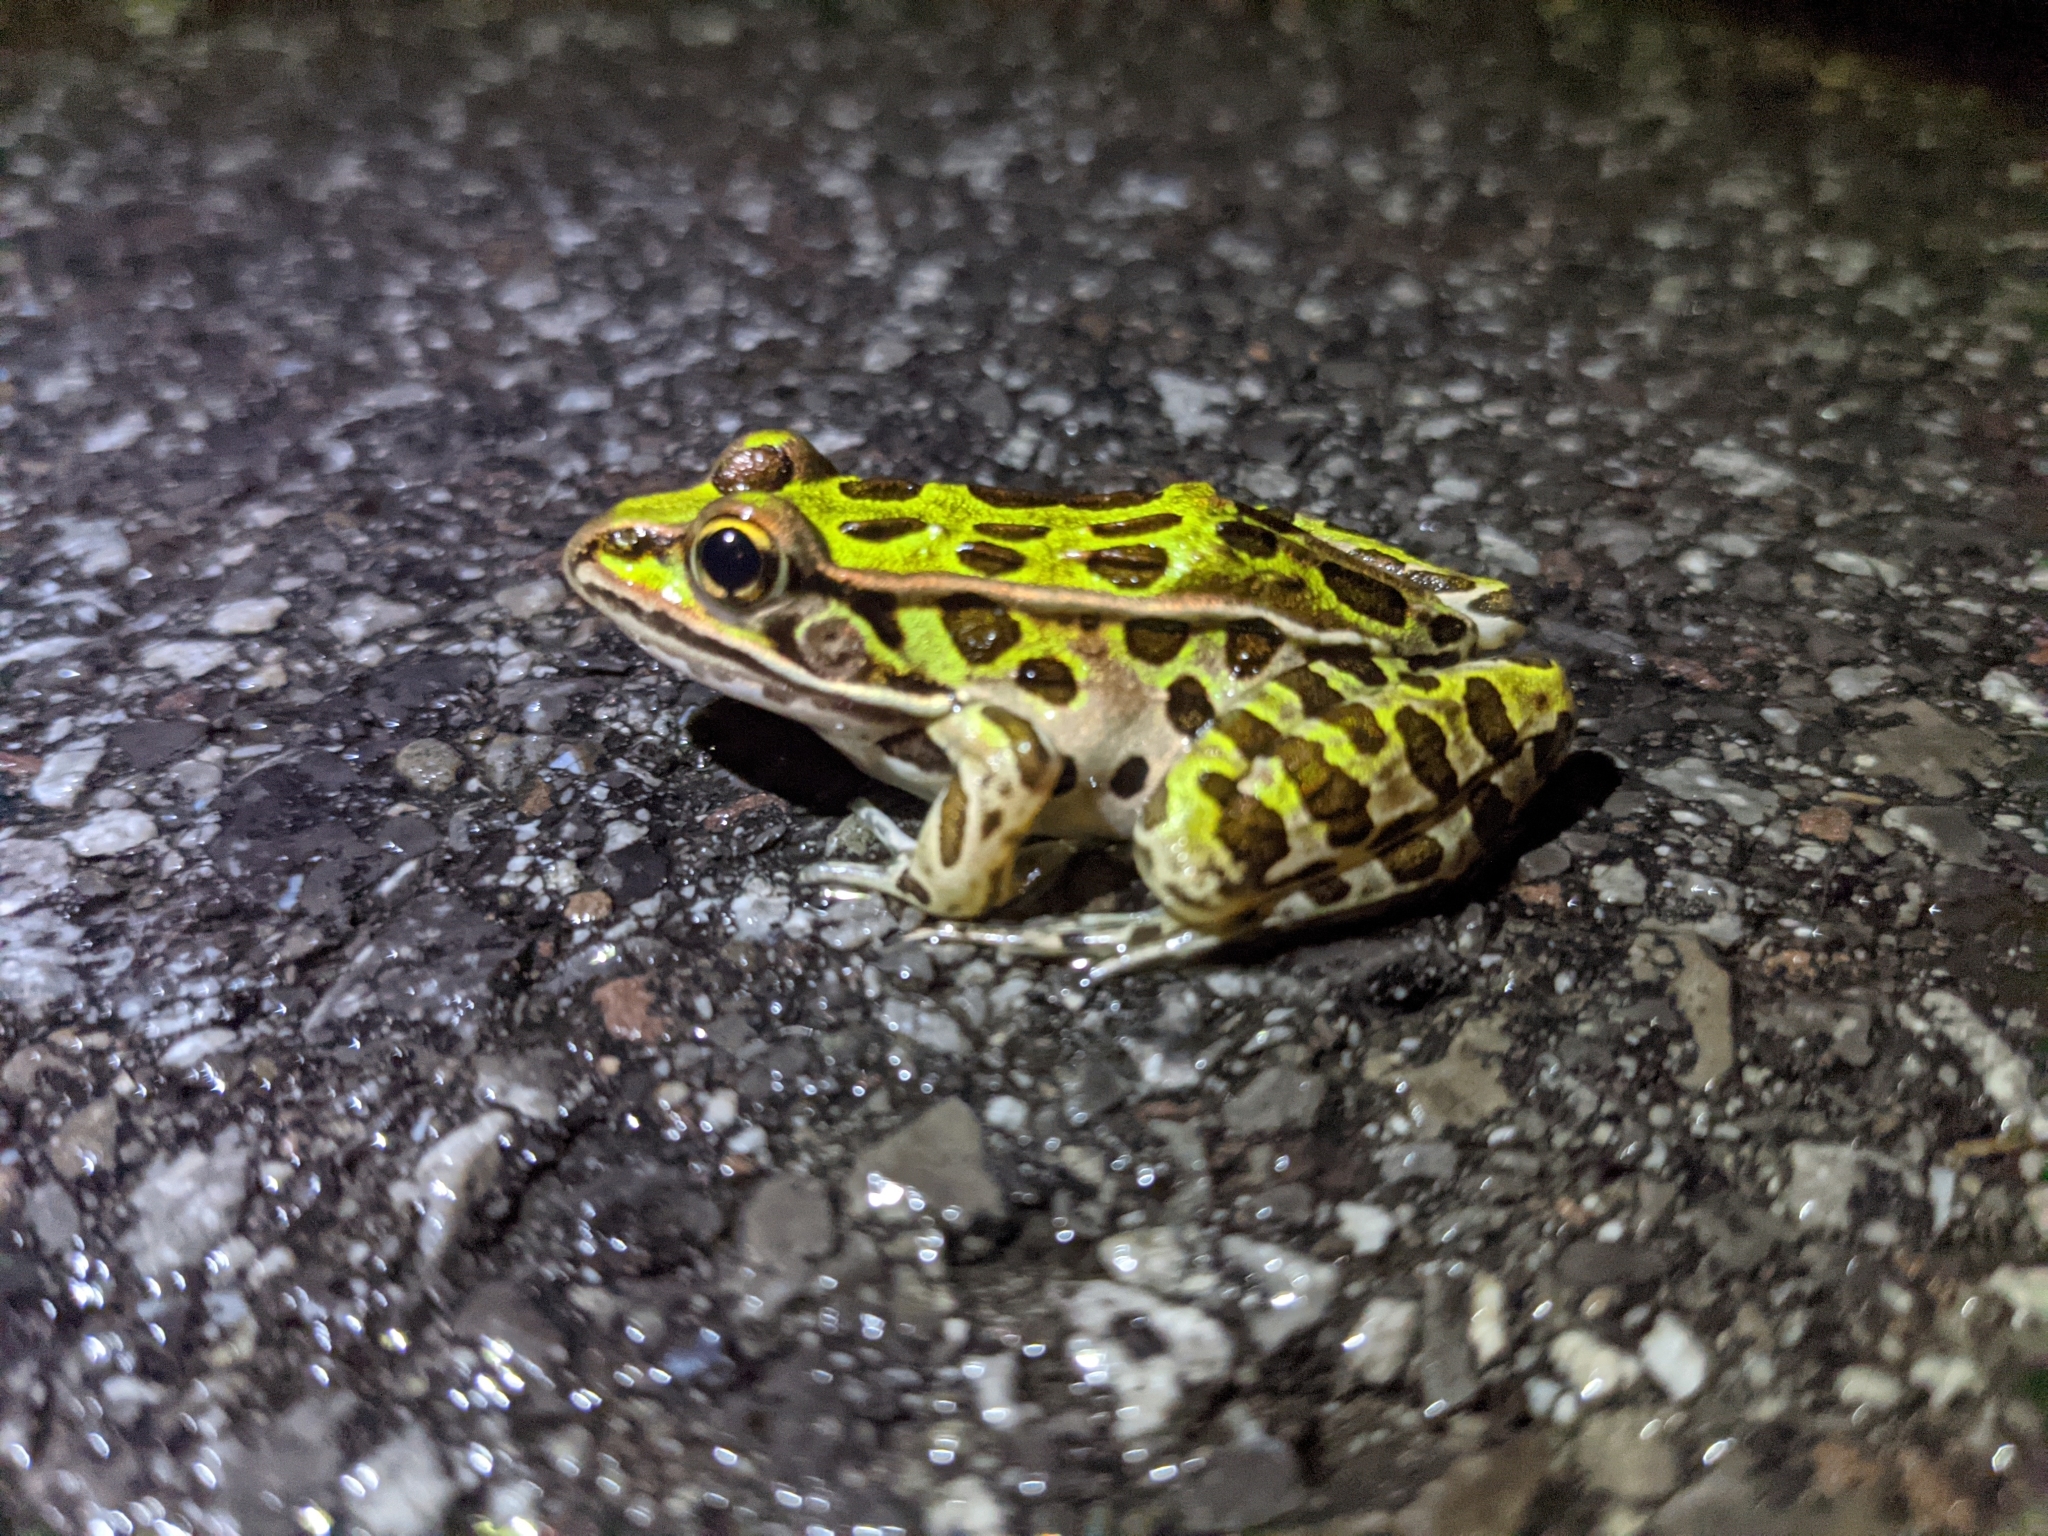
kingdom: Animalia
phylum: Chordata
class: Amphibia
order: Anura
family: Ranidae
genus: Lithobates
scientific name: Lithobates pipiens
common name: Northern leopard frog
